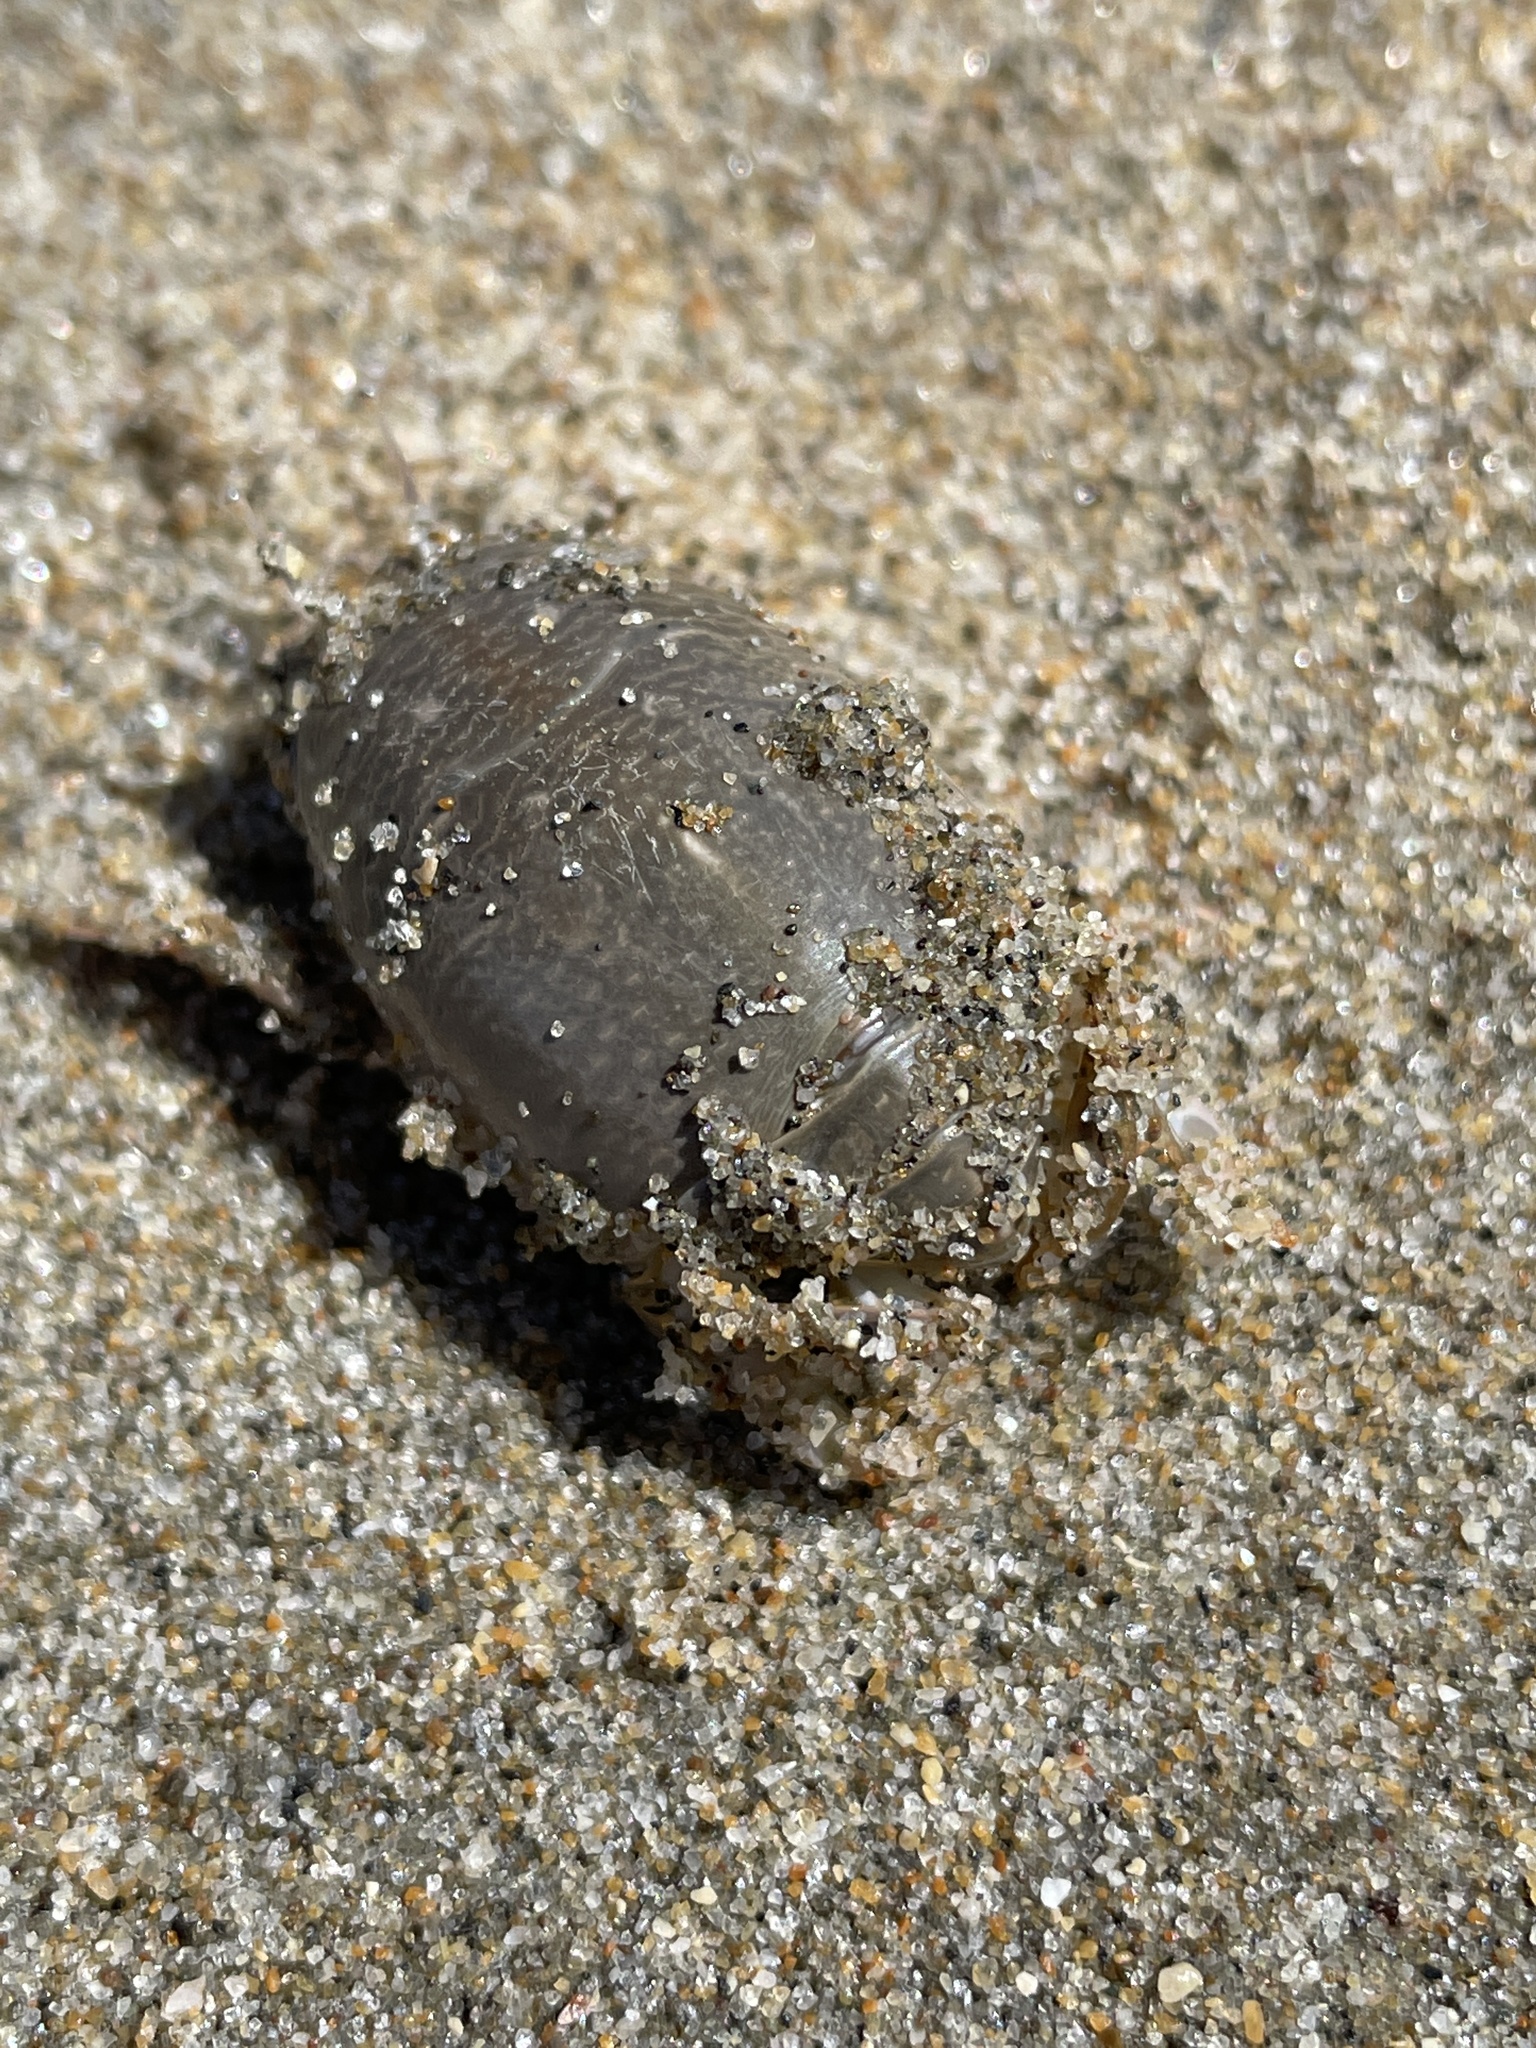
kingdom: Animalia
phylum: Arthropoda
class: Malacostraca
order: Decapoda
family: Hippidae
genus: Emerita
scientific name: Emerita analoga
